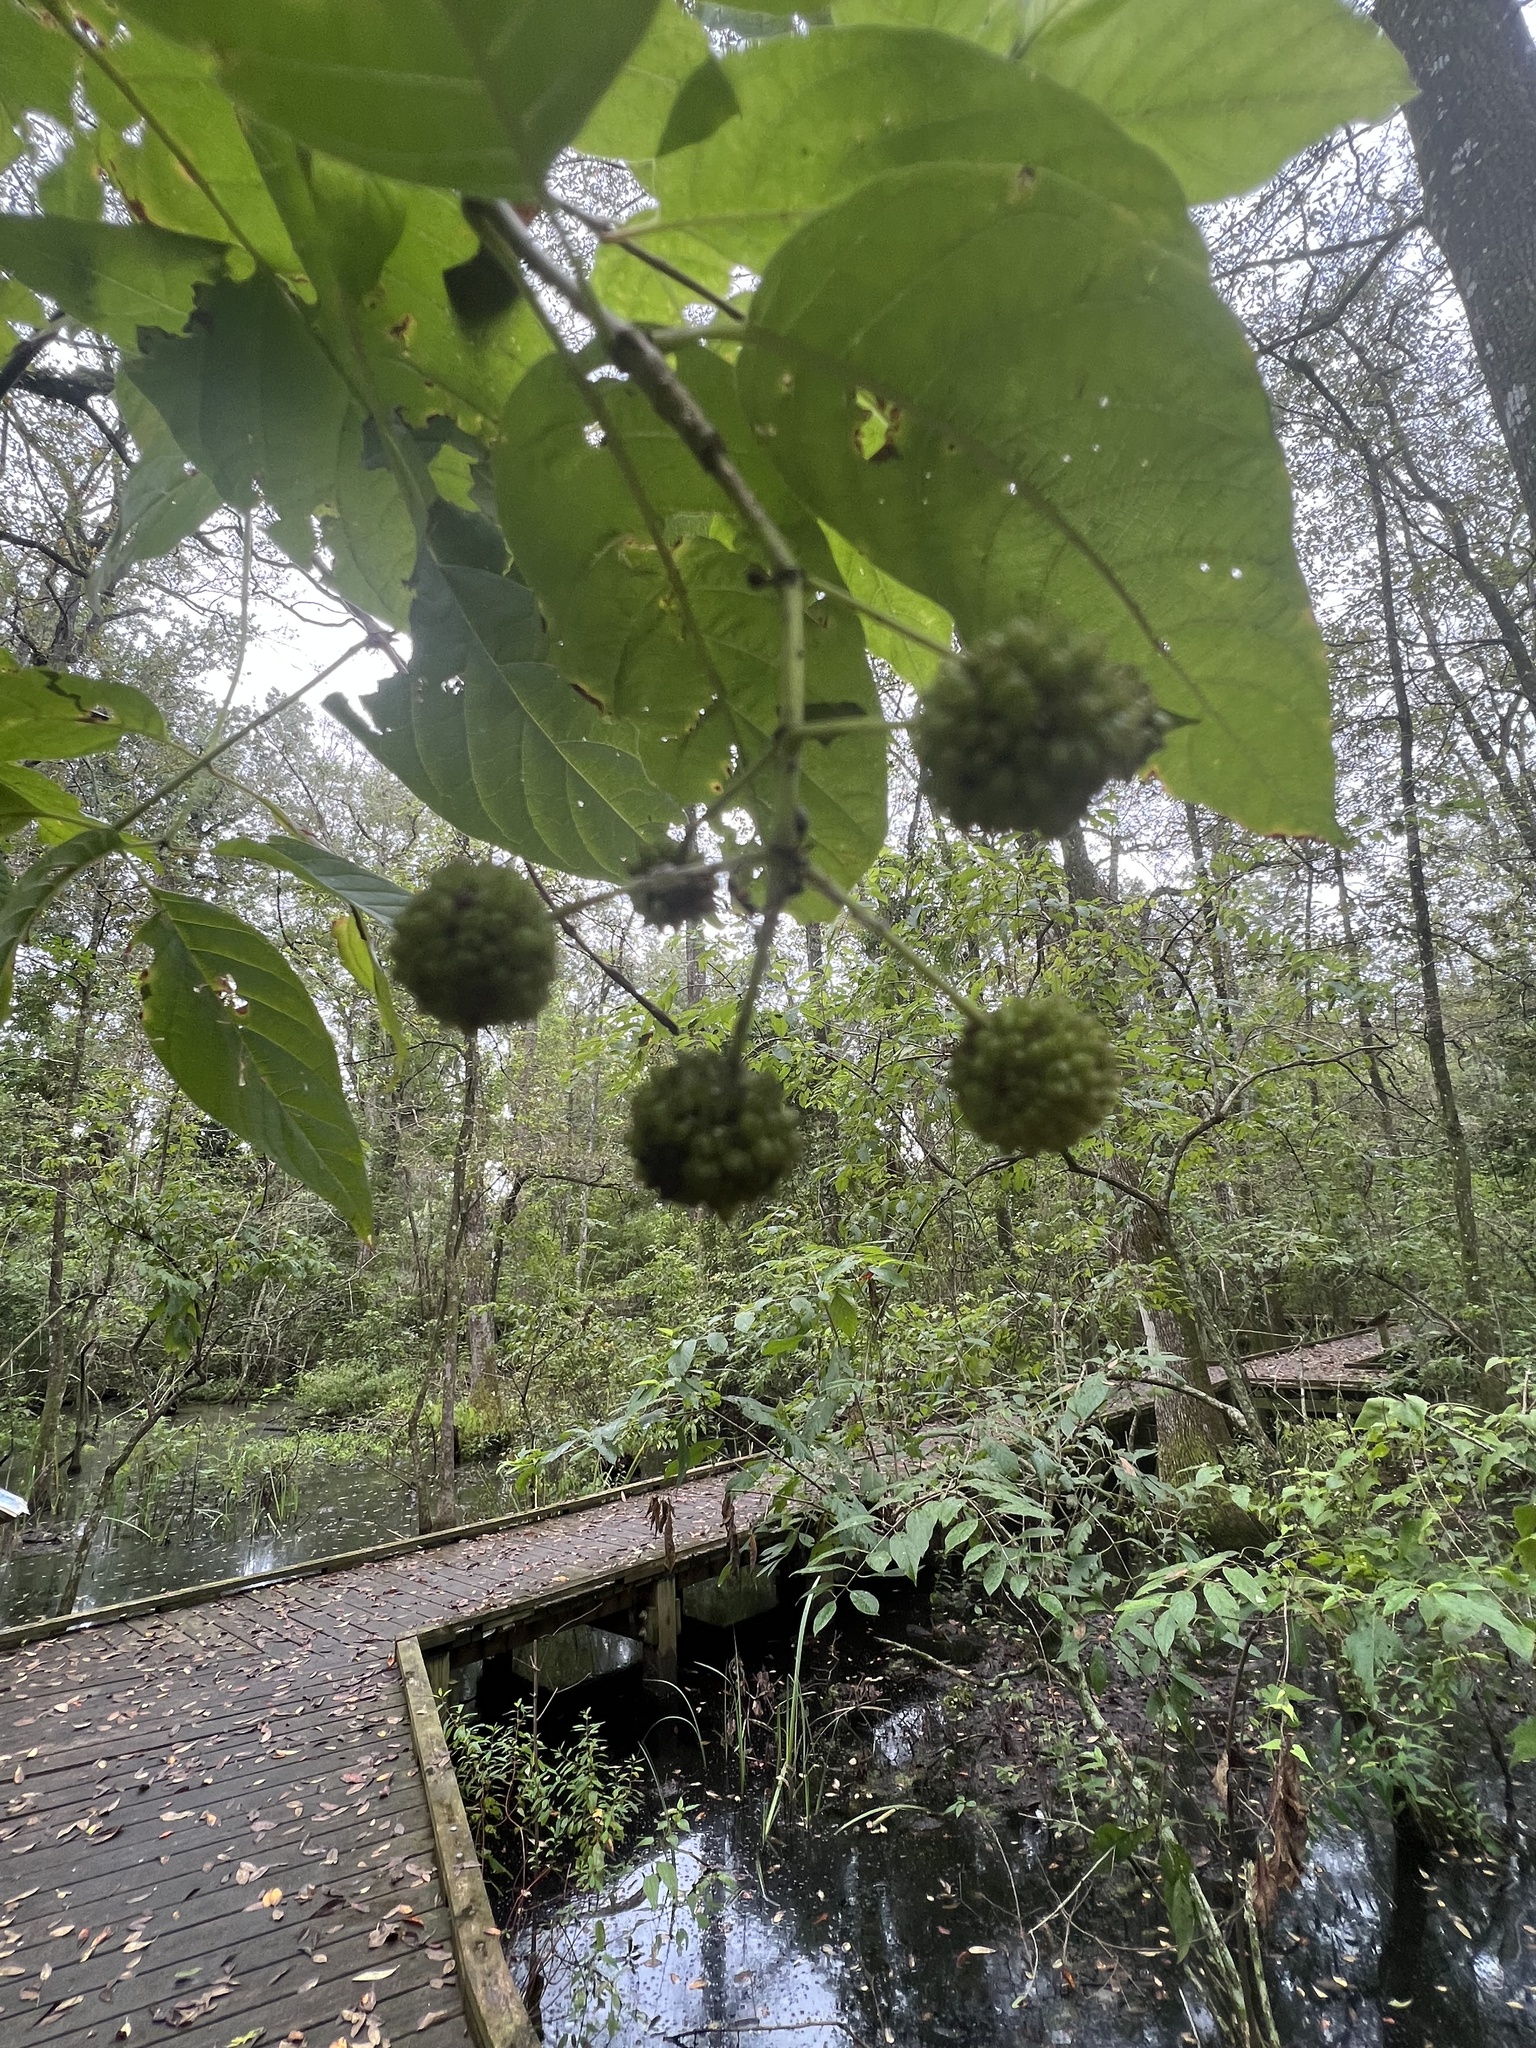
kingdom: Plantae
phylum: Tracheophyta
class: Magnoliopsida
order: Gentianales
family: Rubiaceae
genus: Cephalanthus
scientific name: Cephalanthus occidentalis
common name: Button-willow
